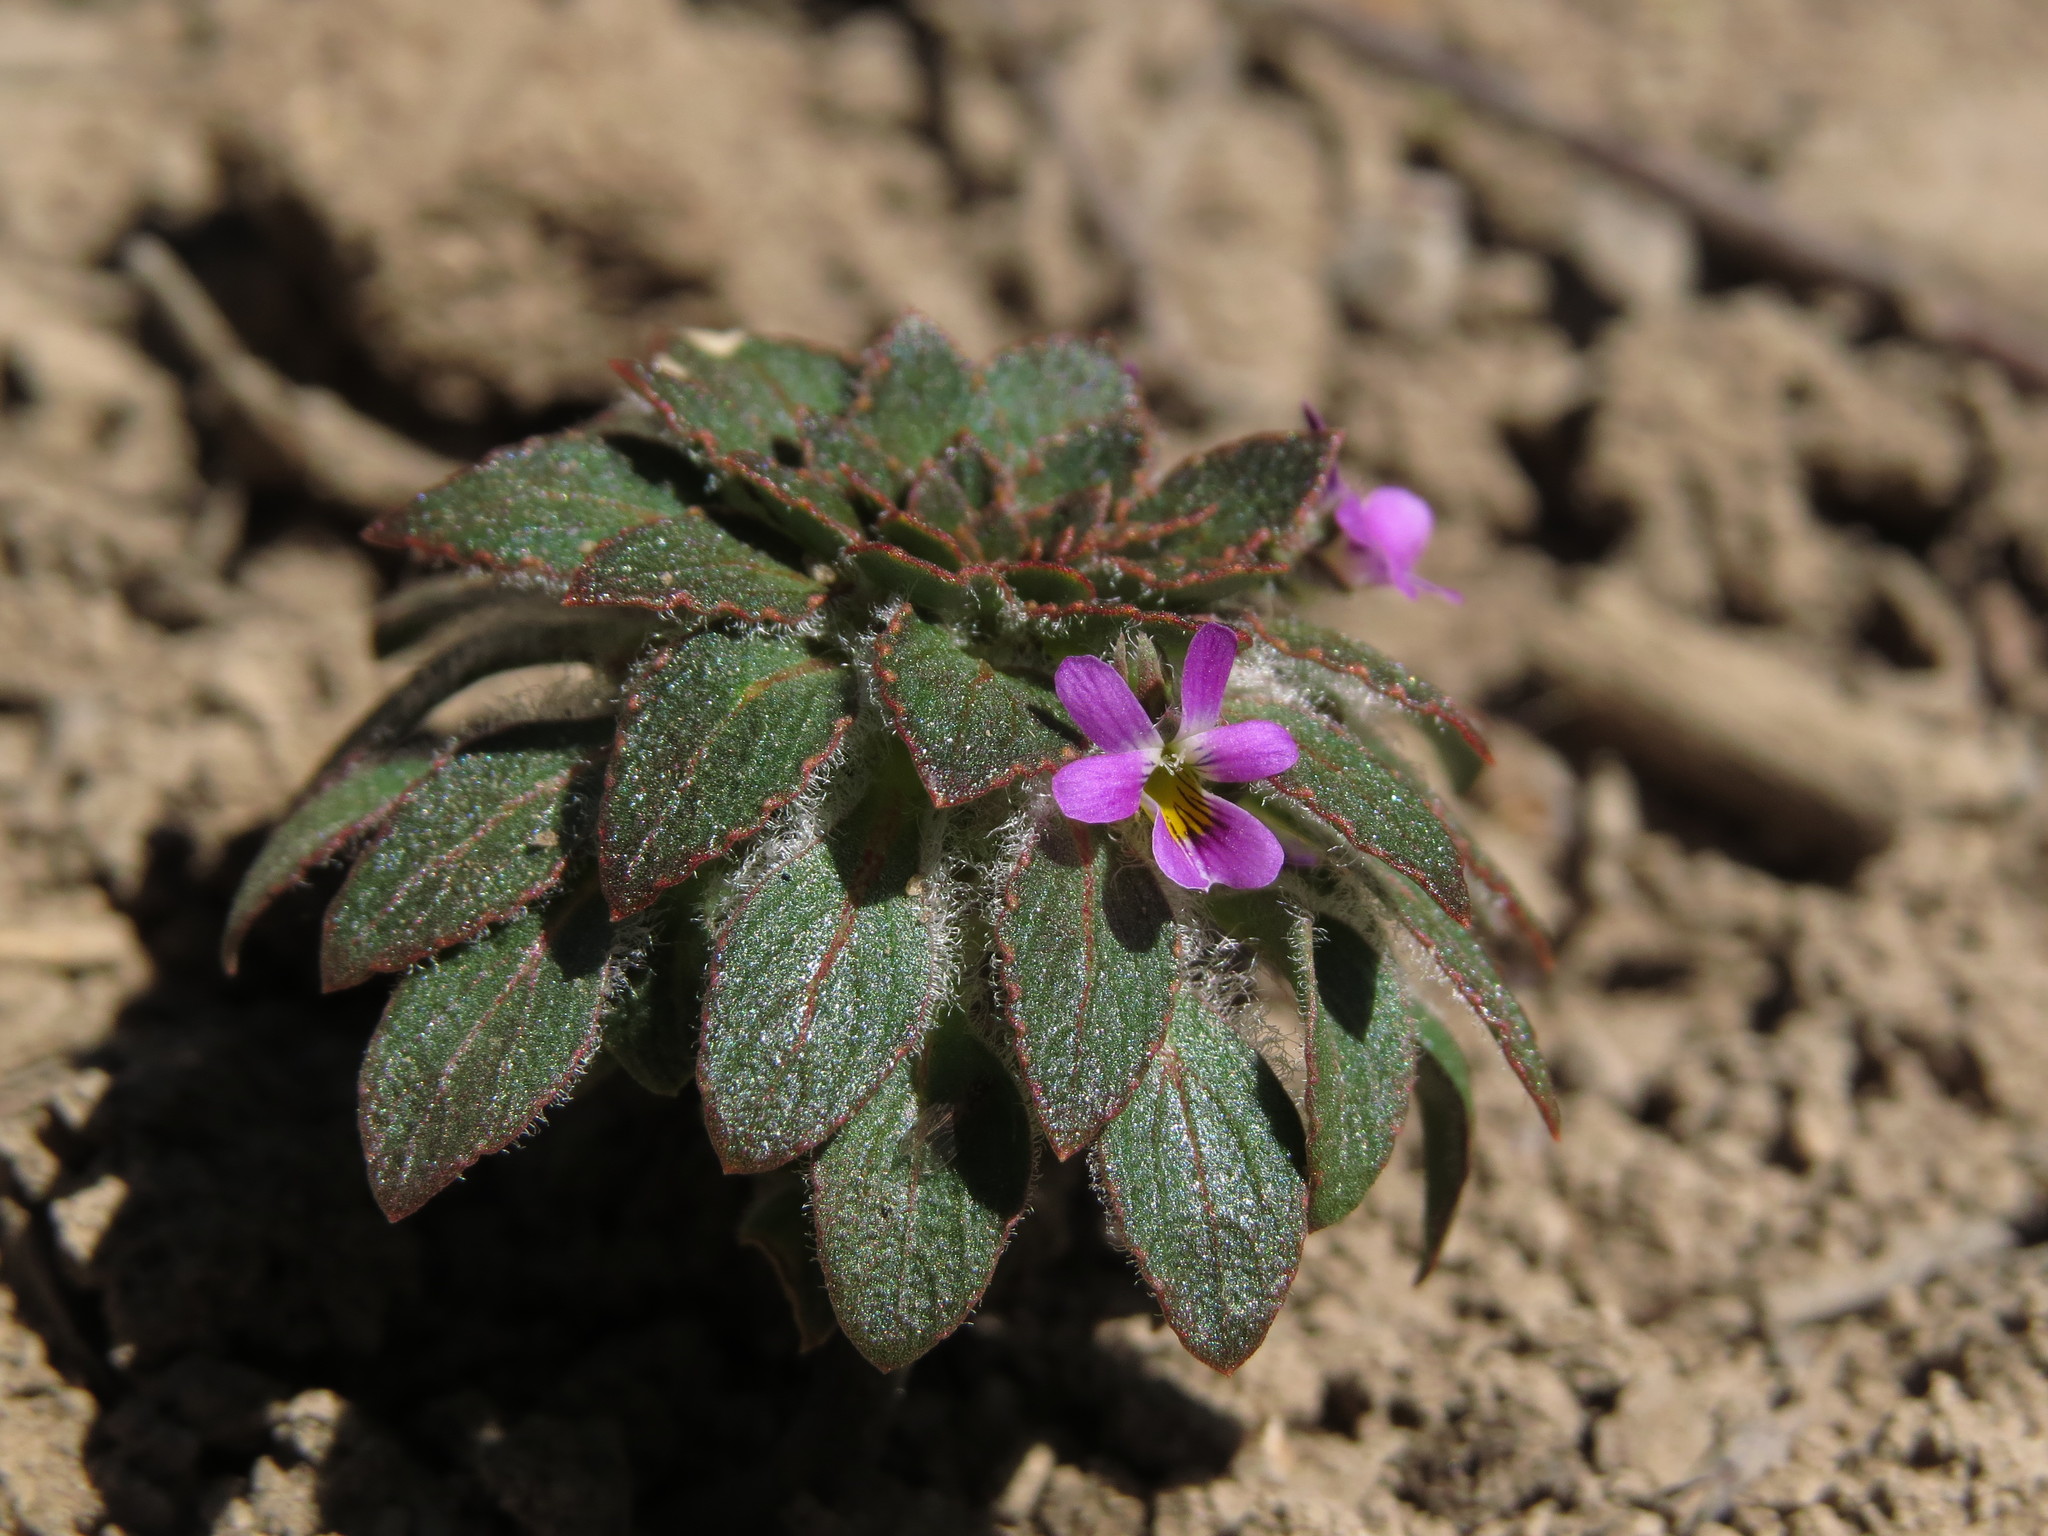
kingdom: Plantae
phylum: Tracheophyta
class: Magnoliopsida
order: Malpighiales
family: Violaceae
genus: Viola
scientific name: Viola subandina
